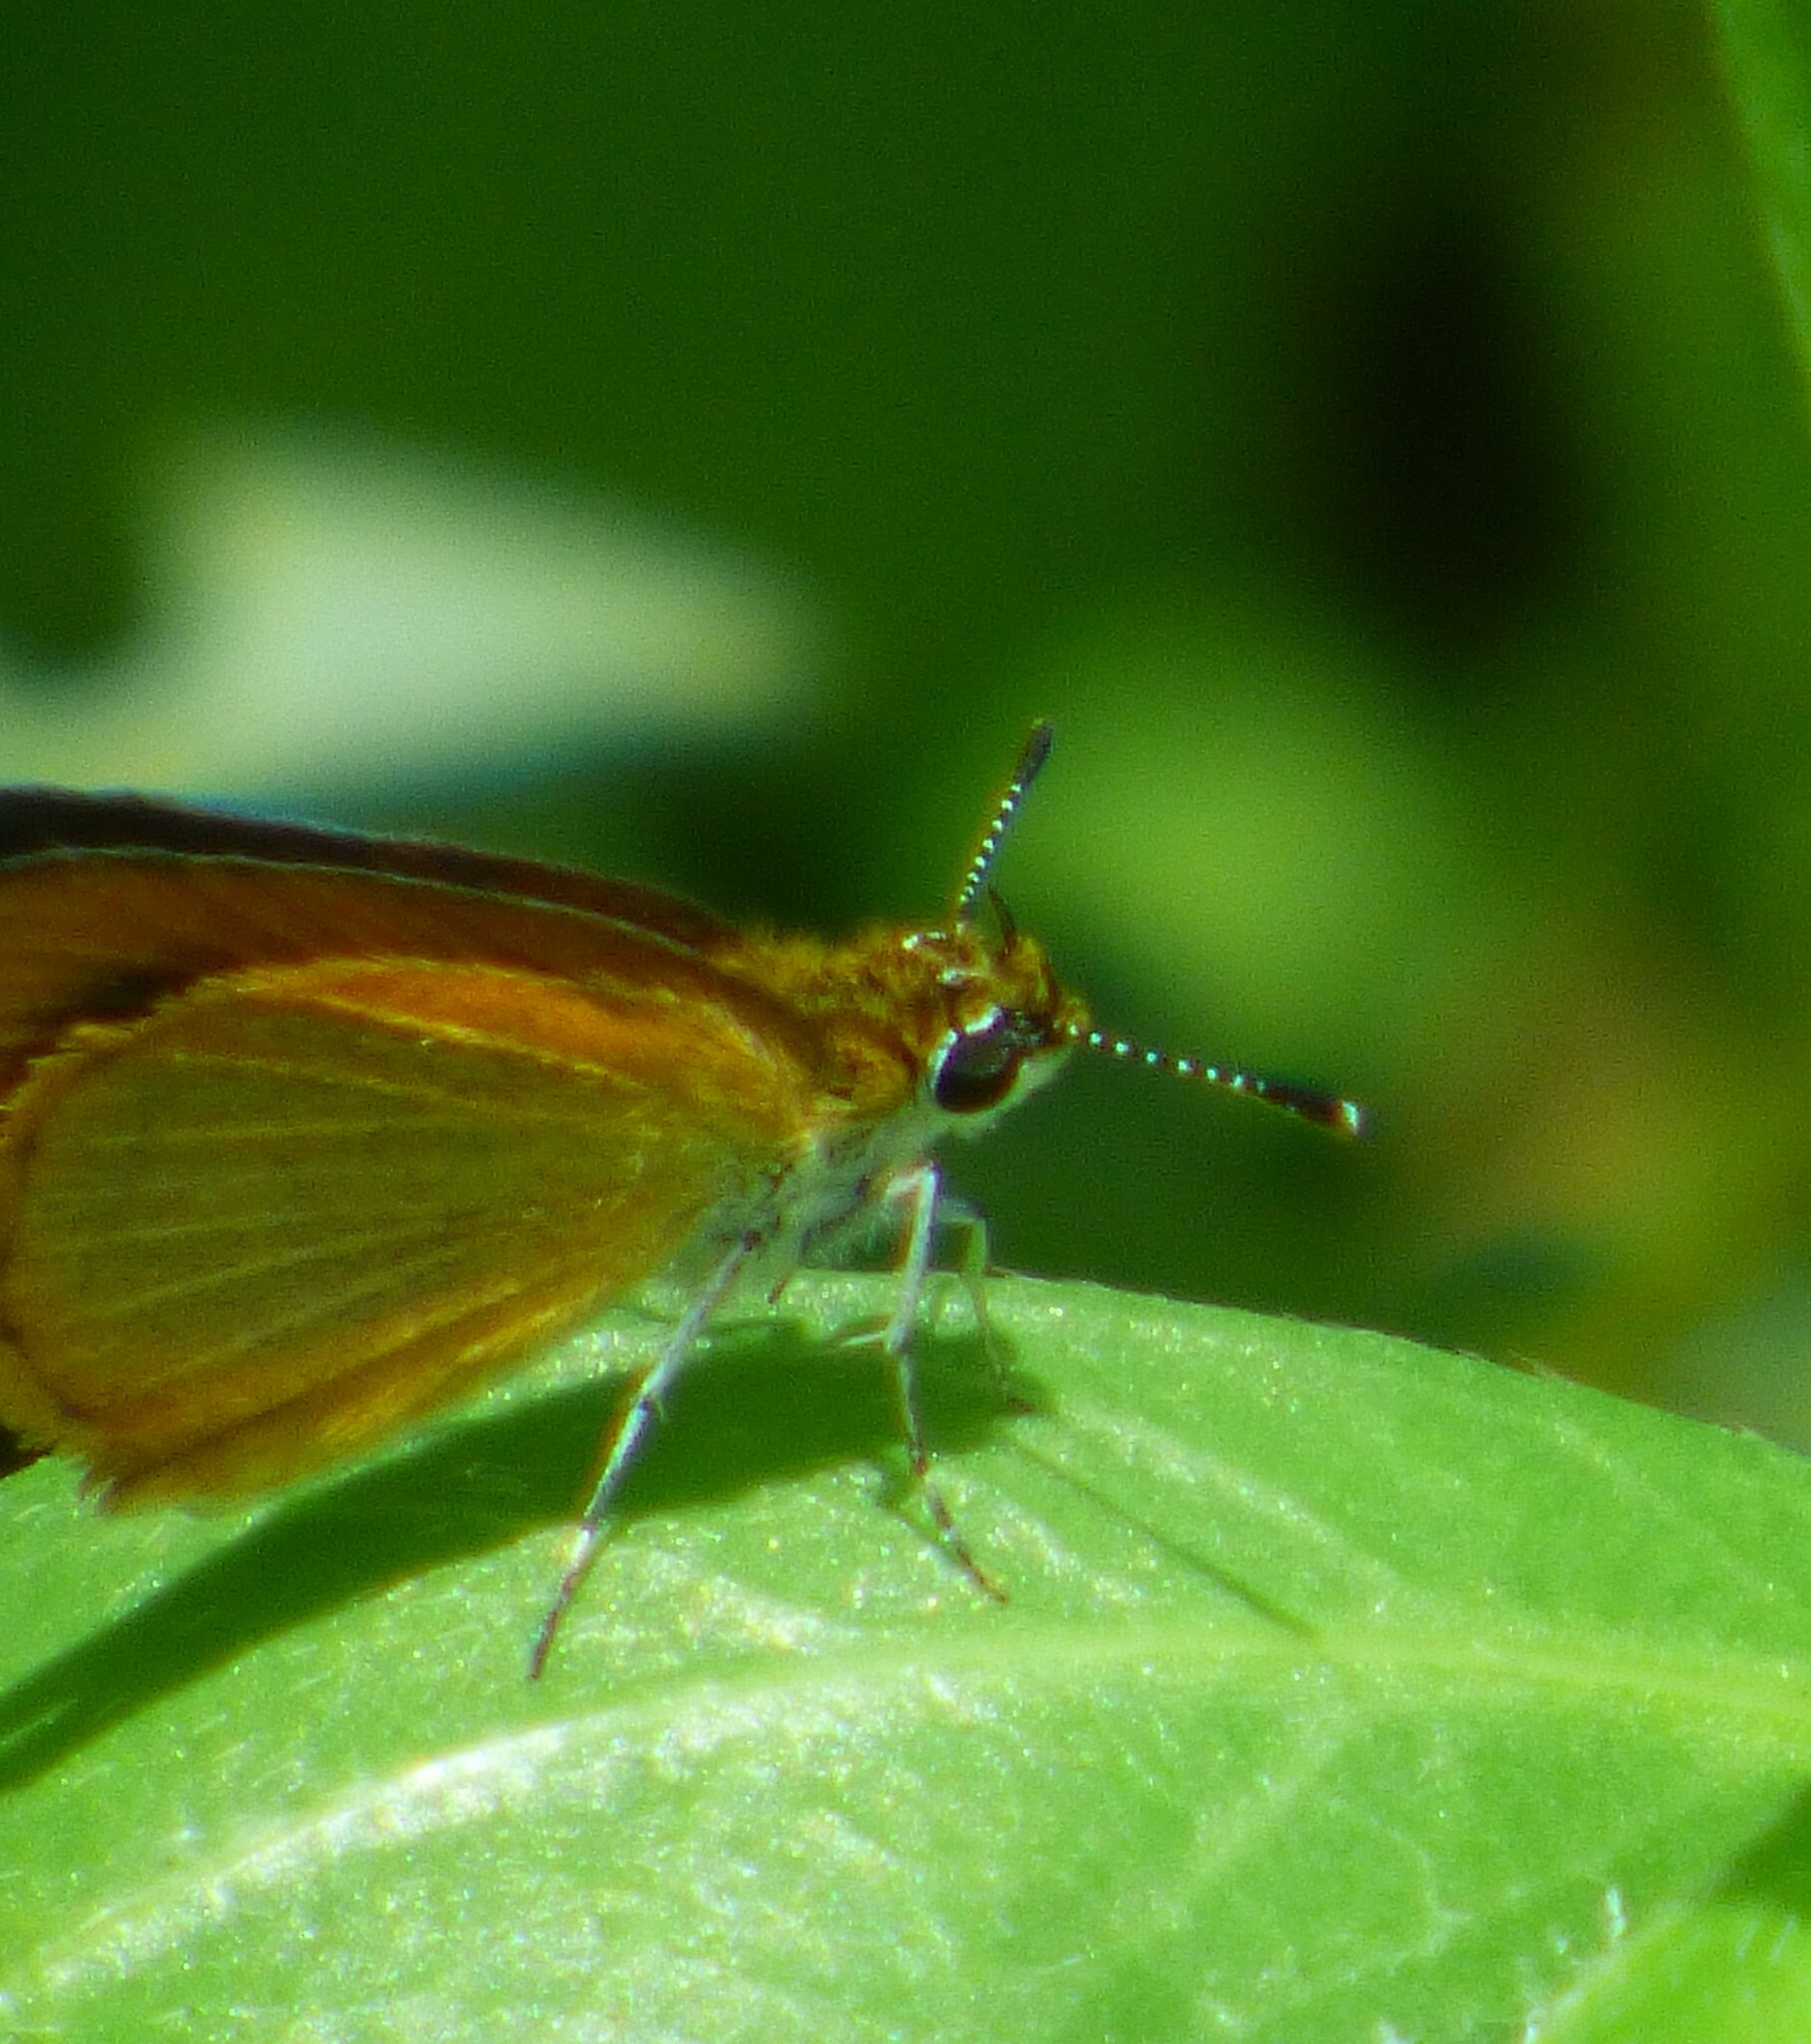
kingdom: Animalia
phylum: Arthropoda
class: Insecta
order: Lepidoptera
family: Hesperiidae
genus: Ancyloxypha
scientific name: Ancyloxypha numitor
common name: Least skipper
